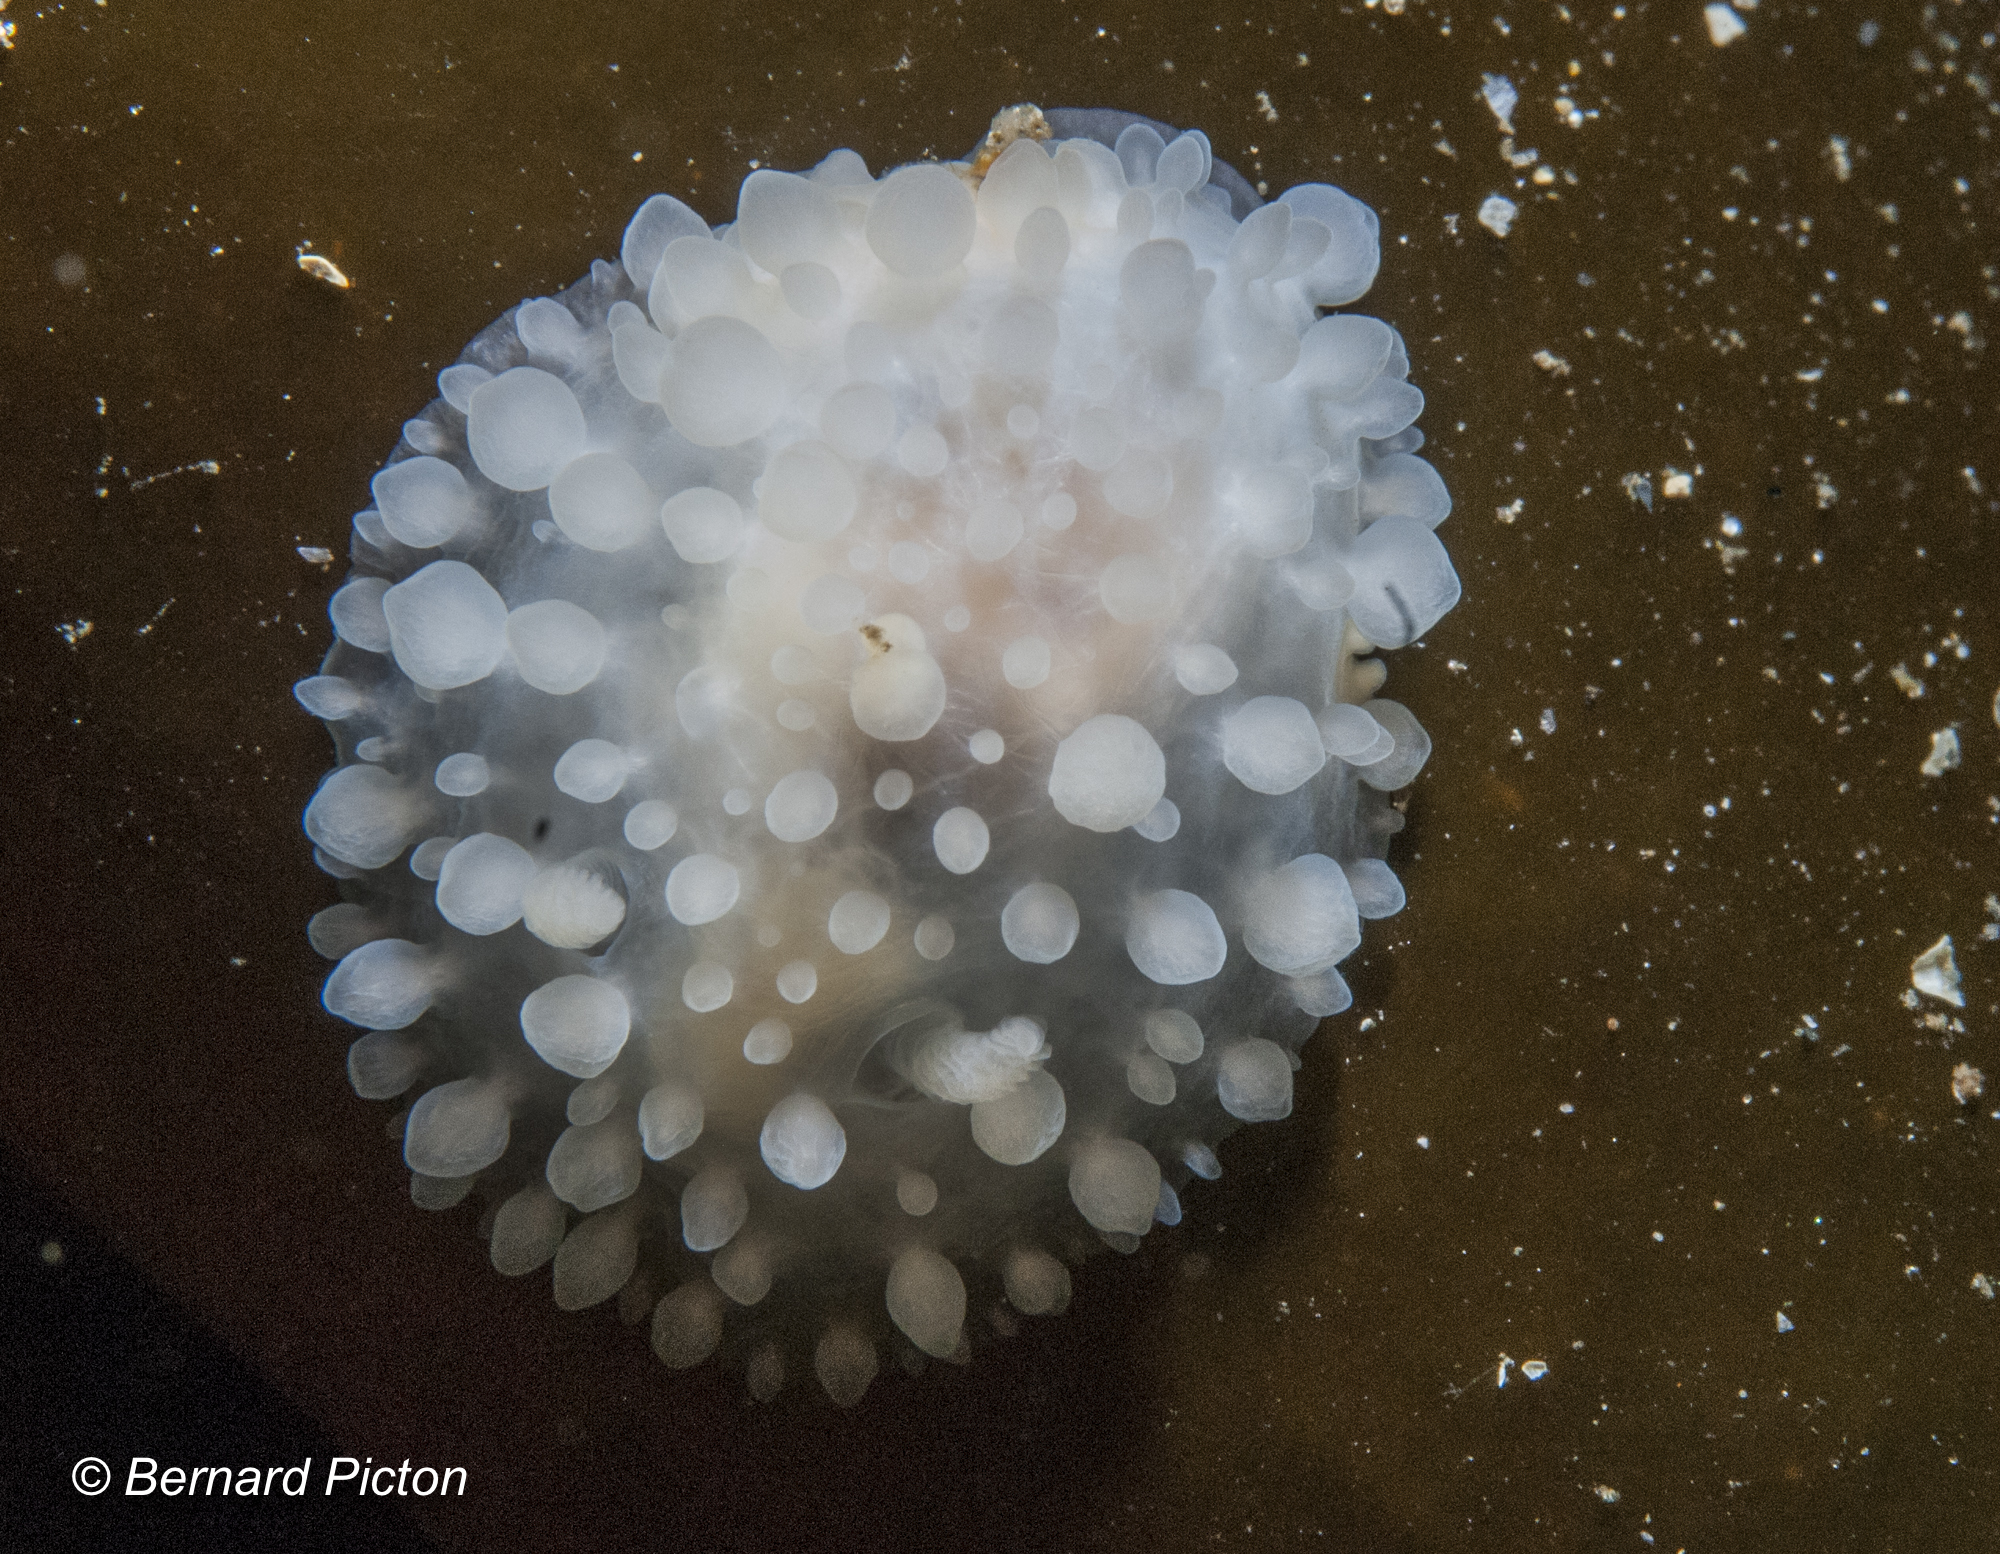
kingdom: Animalia
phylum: Mollusca
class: Gastropoda
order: Nudibranchia
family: Onchidorididae
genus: Adalaria
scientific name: Adalaria loveni
